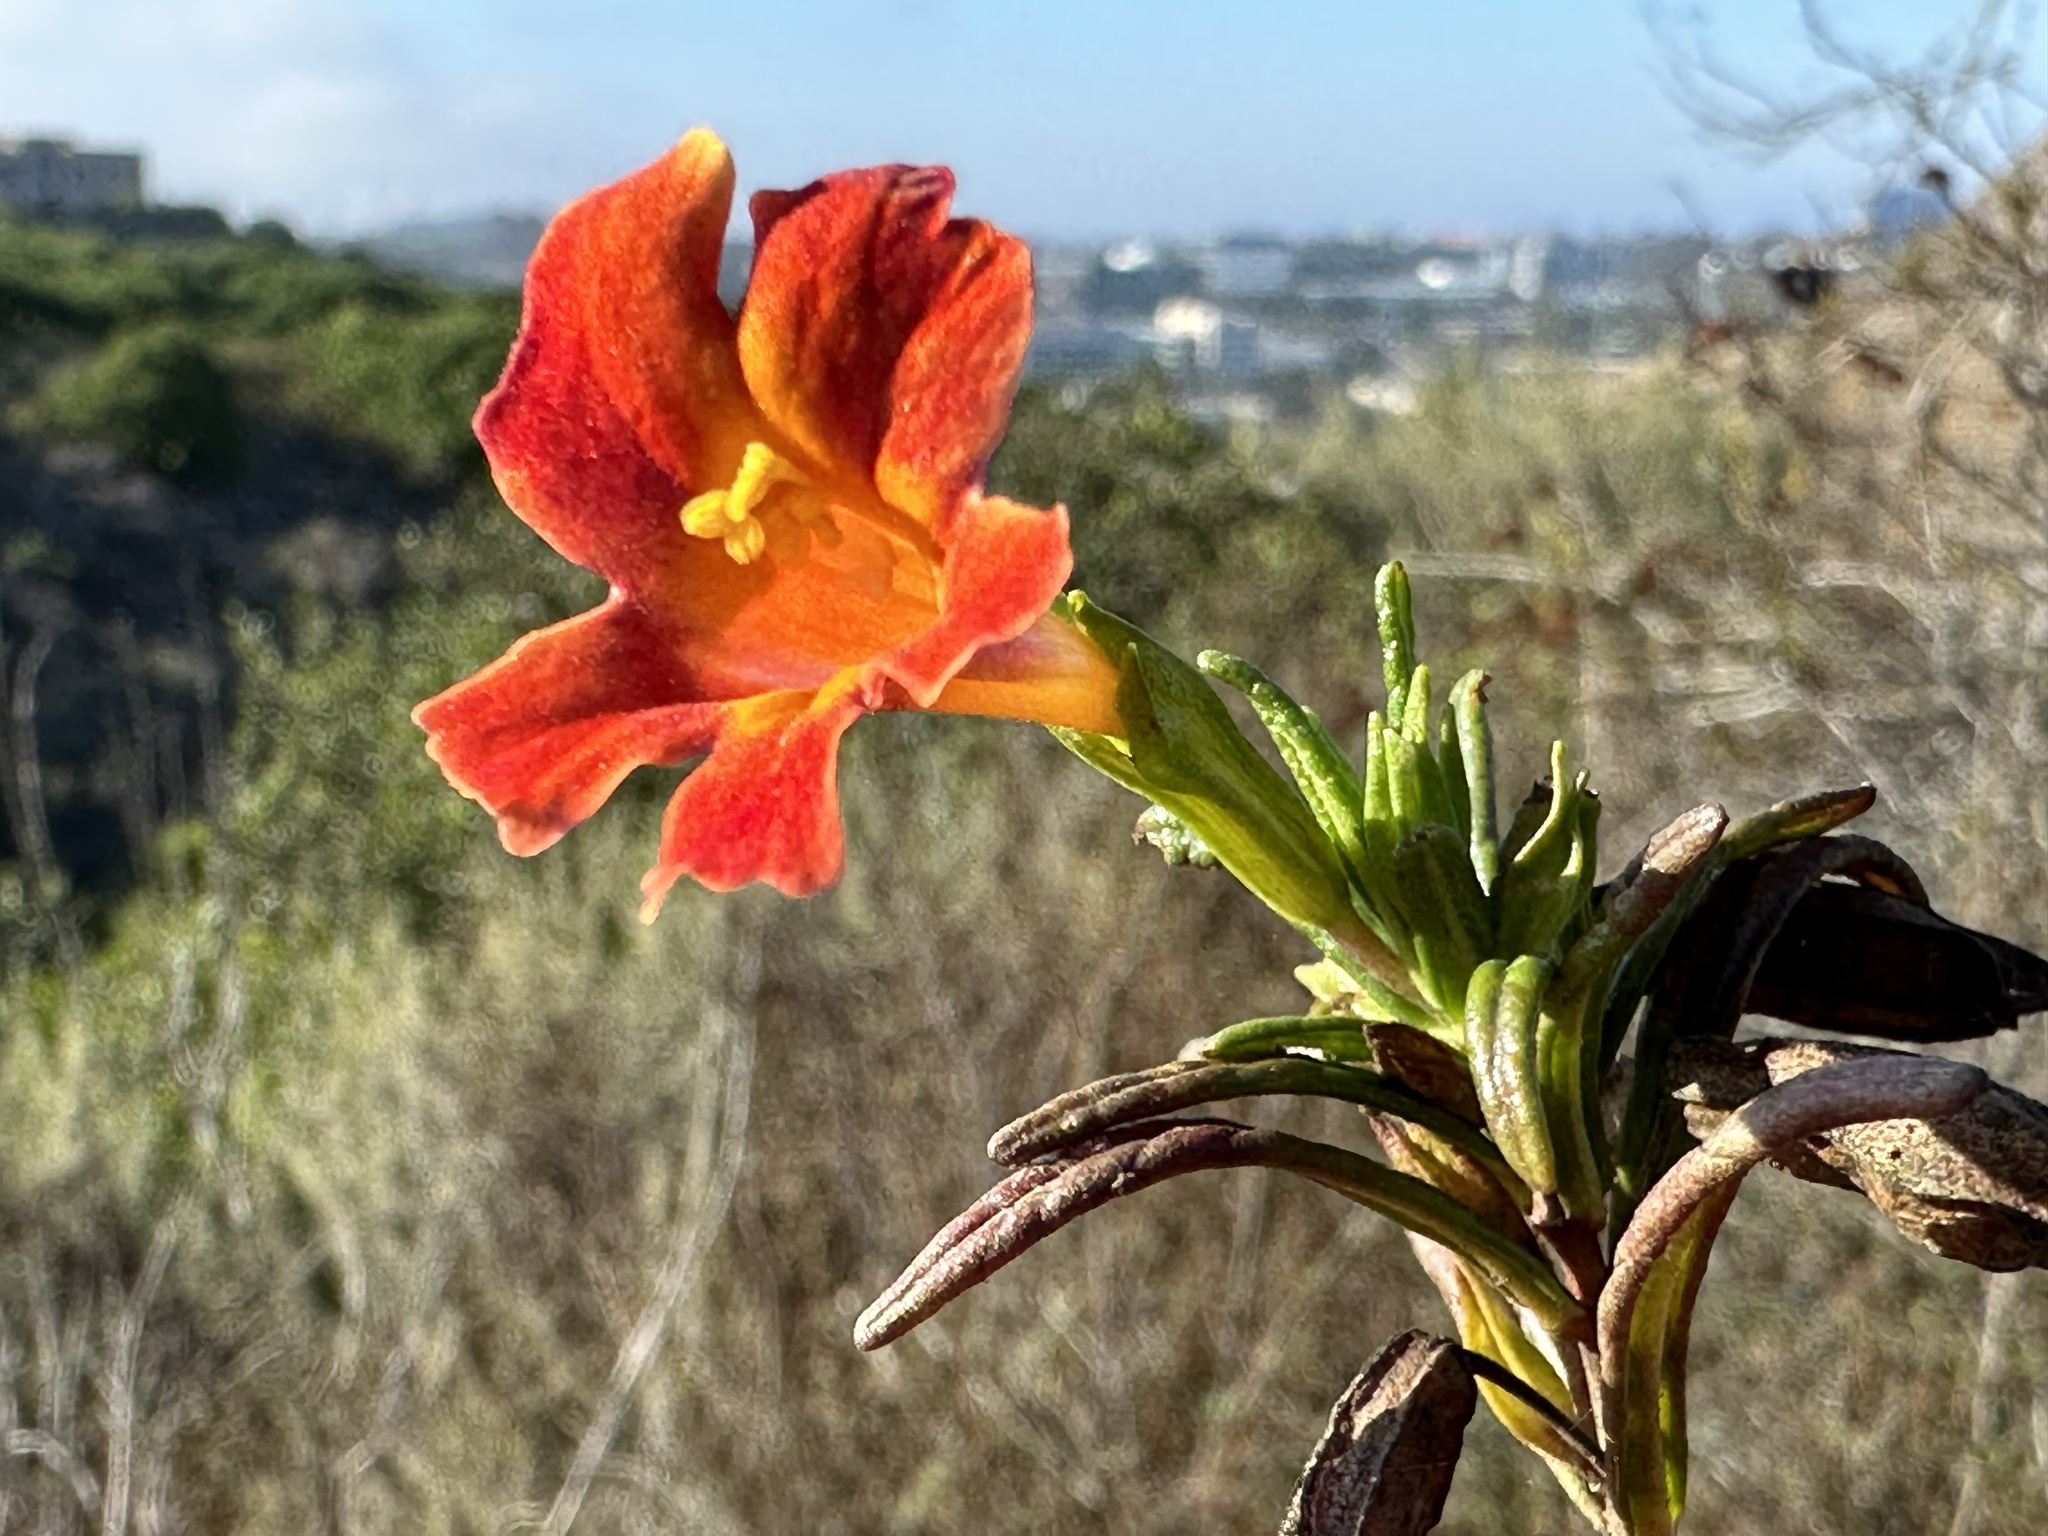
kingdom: Plantae
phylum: Tracheophyta
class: Magnoliopsida
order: Lamiales
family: Phrymaceae
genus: Diplacus
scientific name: Diplacus puniceus
